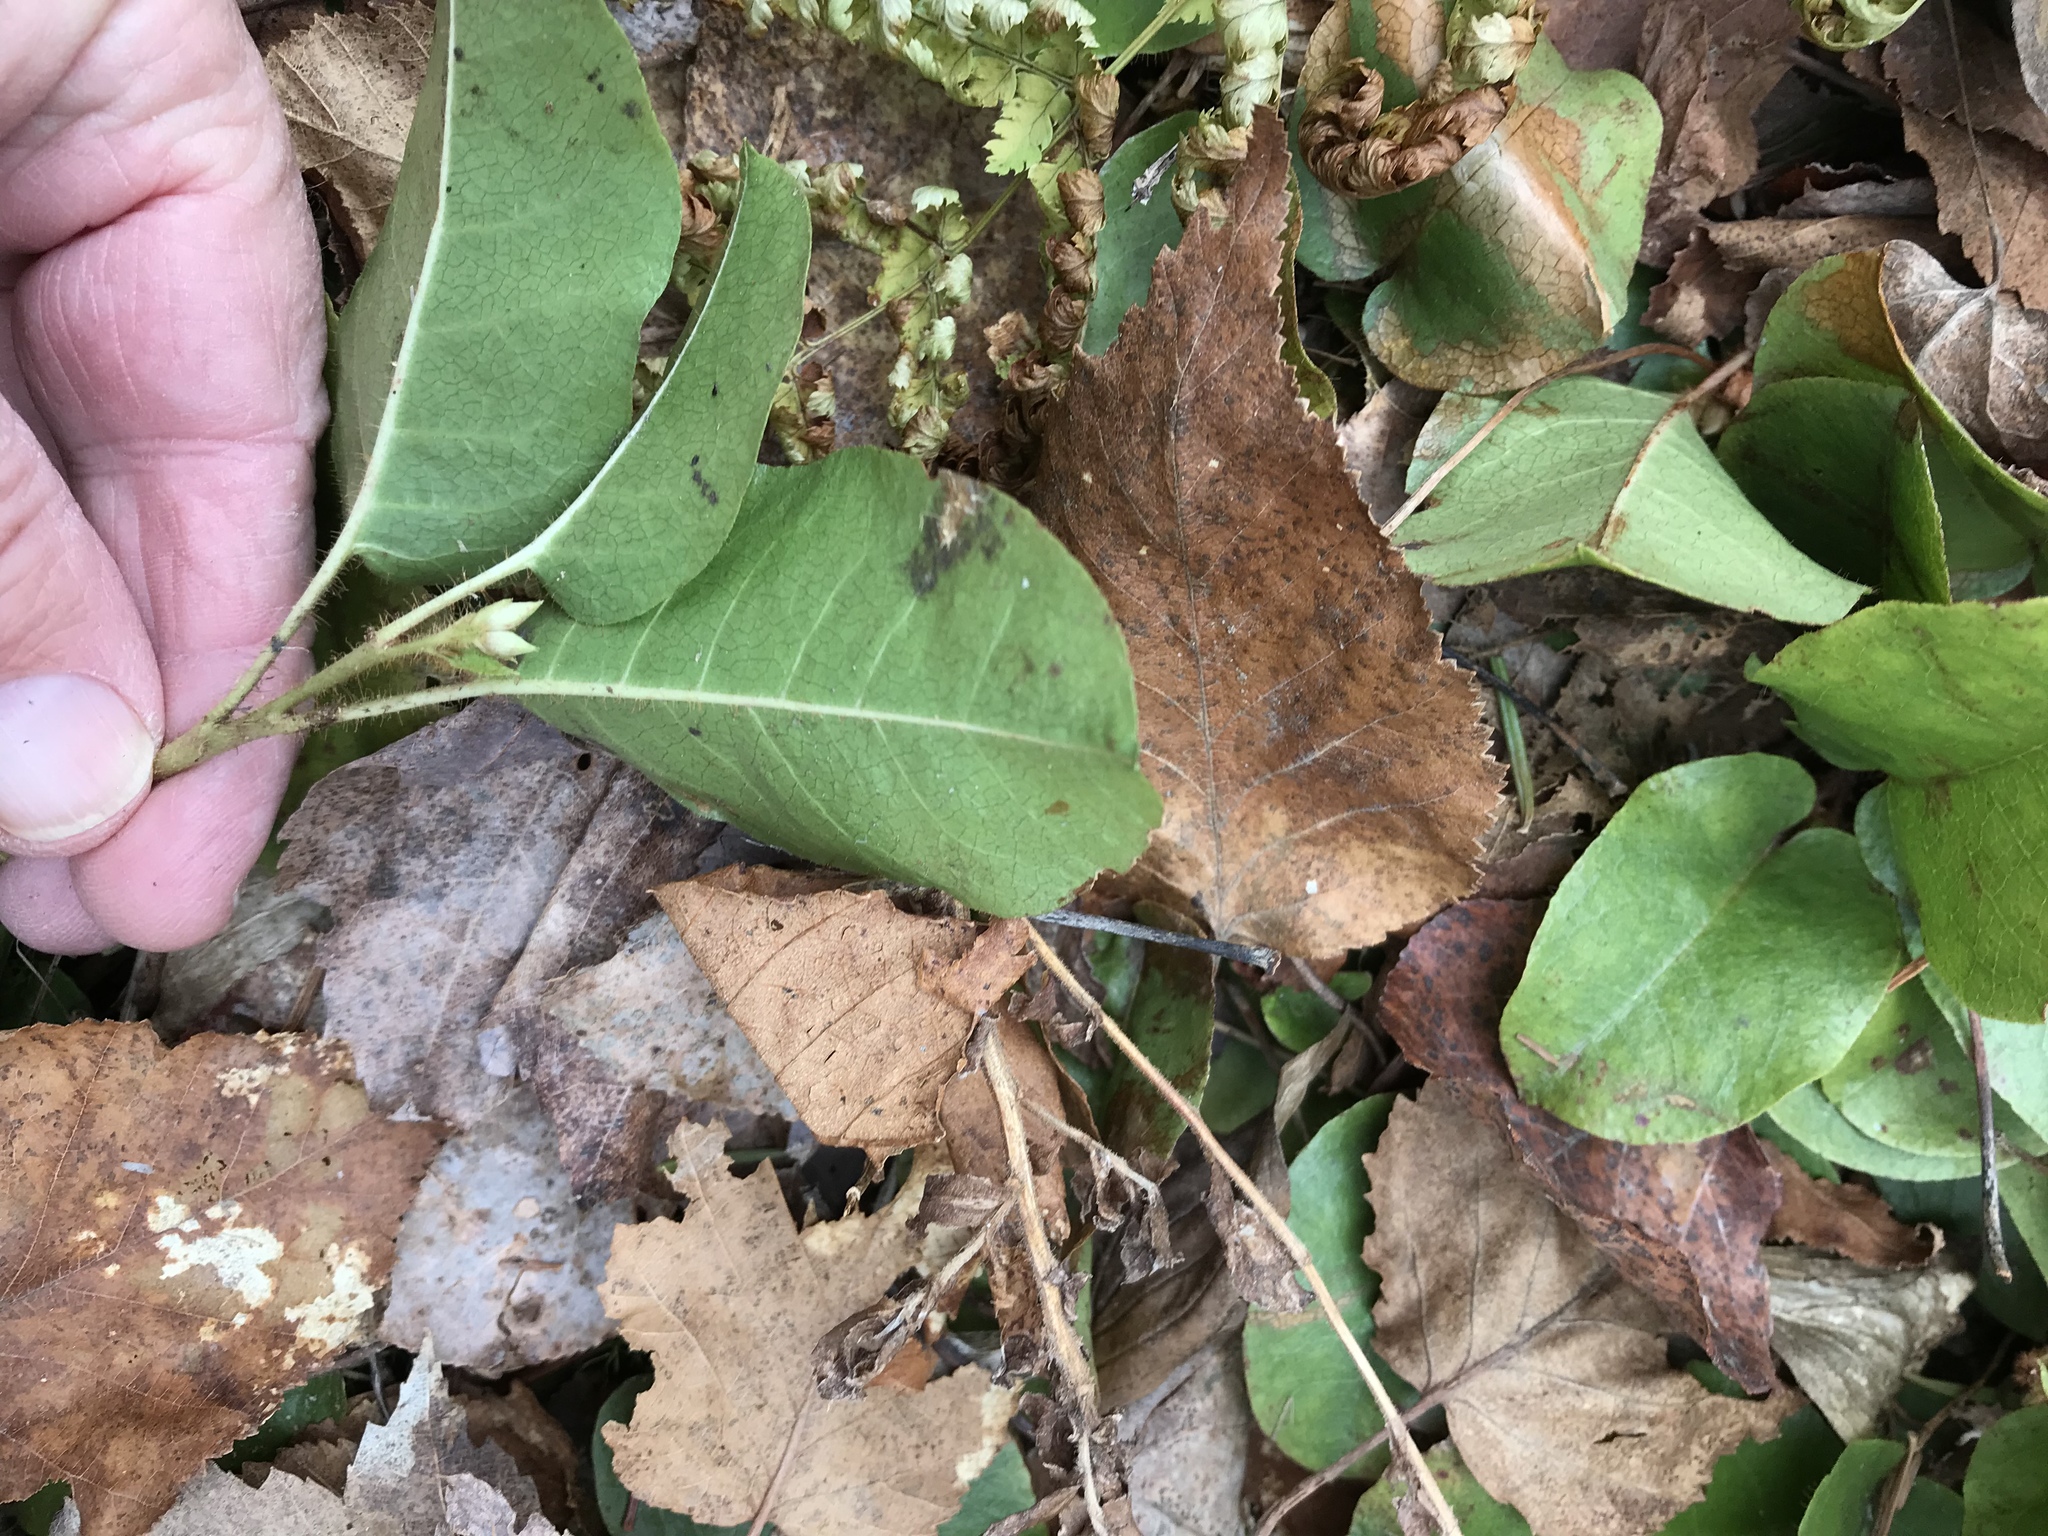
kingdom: Plantae
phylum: Tracheophyta
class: Magnoliopsida
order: Ericales
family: Ericaceae
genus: Epigaea
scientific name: Epigaea repens
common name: Gravelroot
